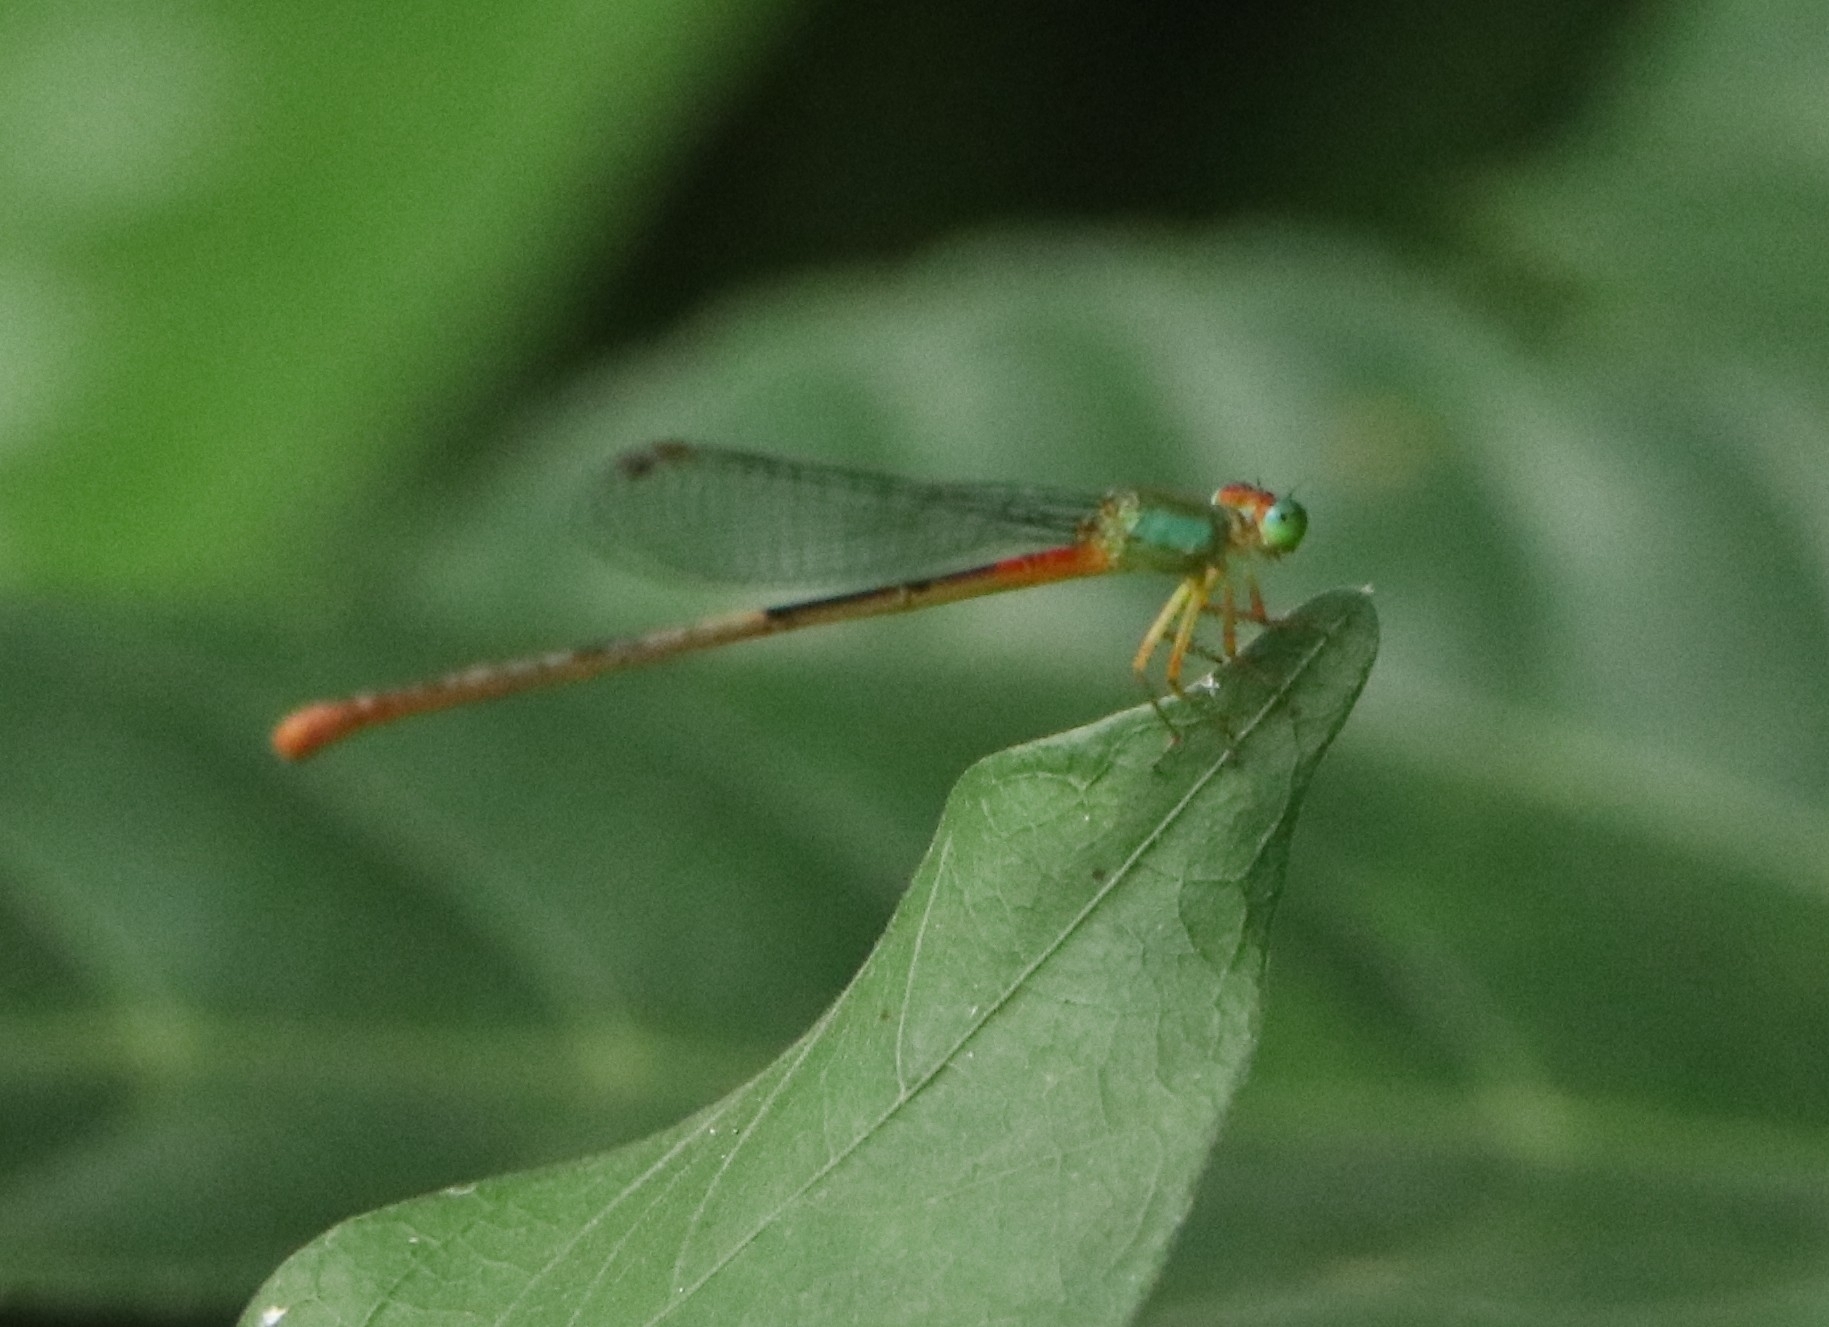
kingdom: Animalia
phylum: Arthropoda
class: Insecta
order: Odonata
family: Coenagrionidae
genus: Ceriagrion
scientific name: Ceriagrion cerinorubellum
